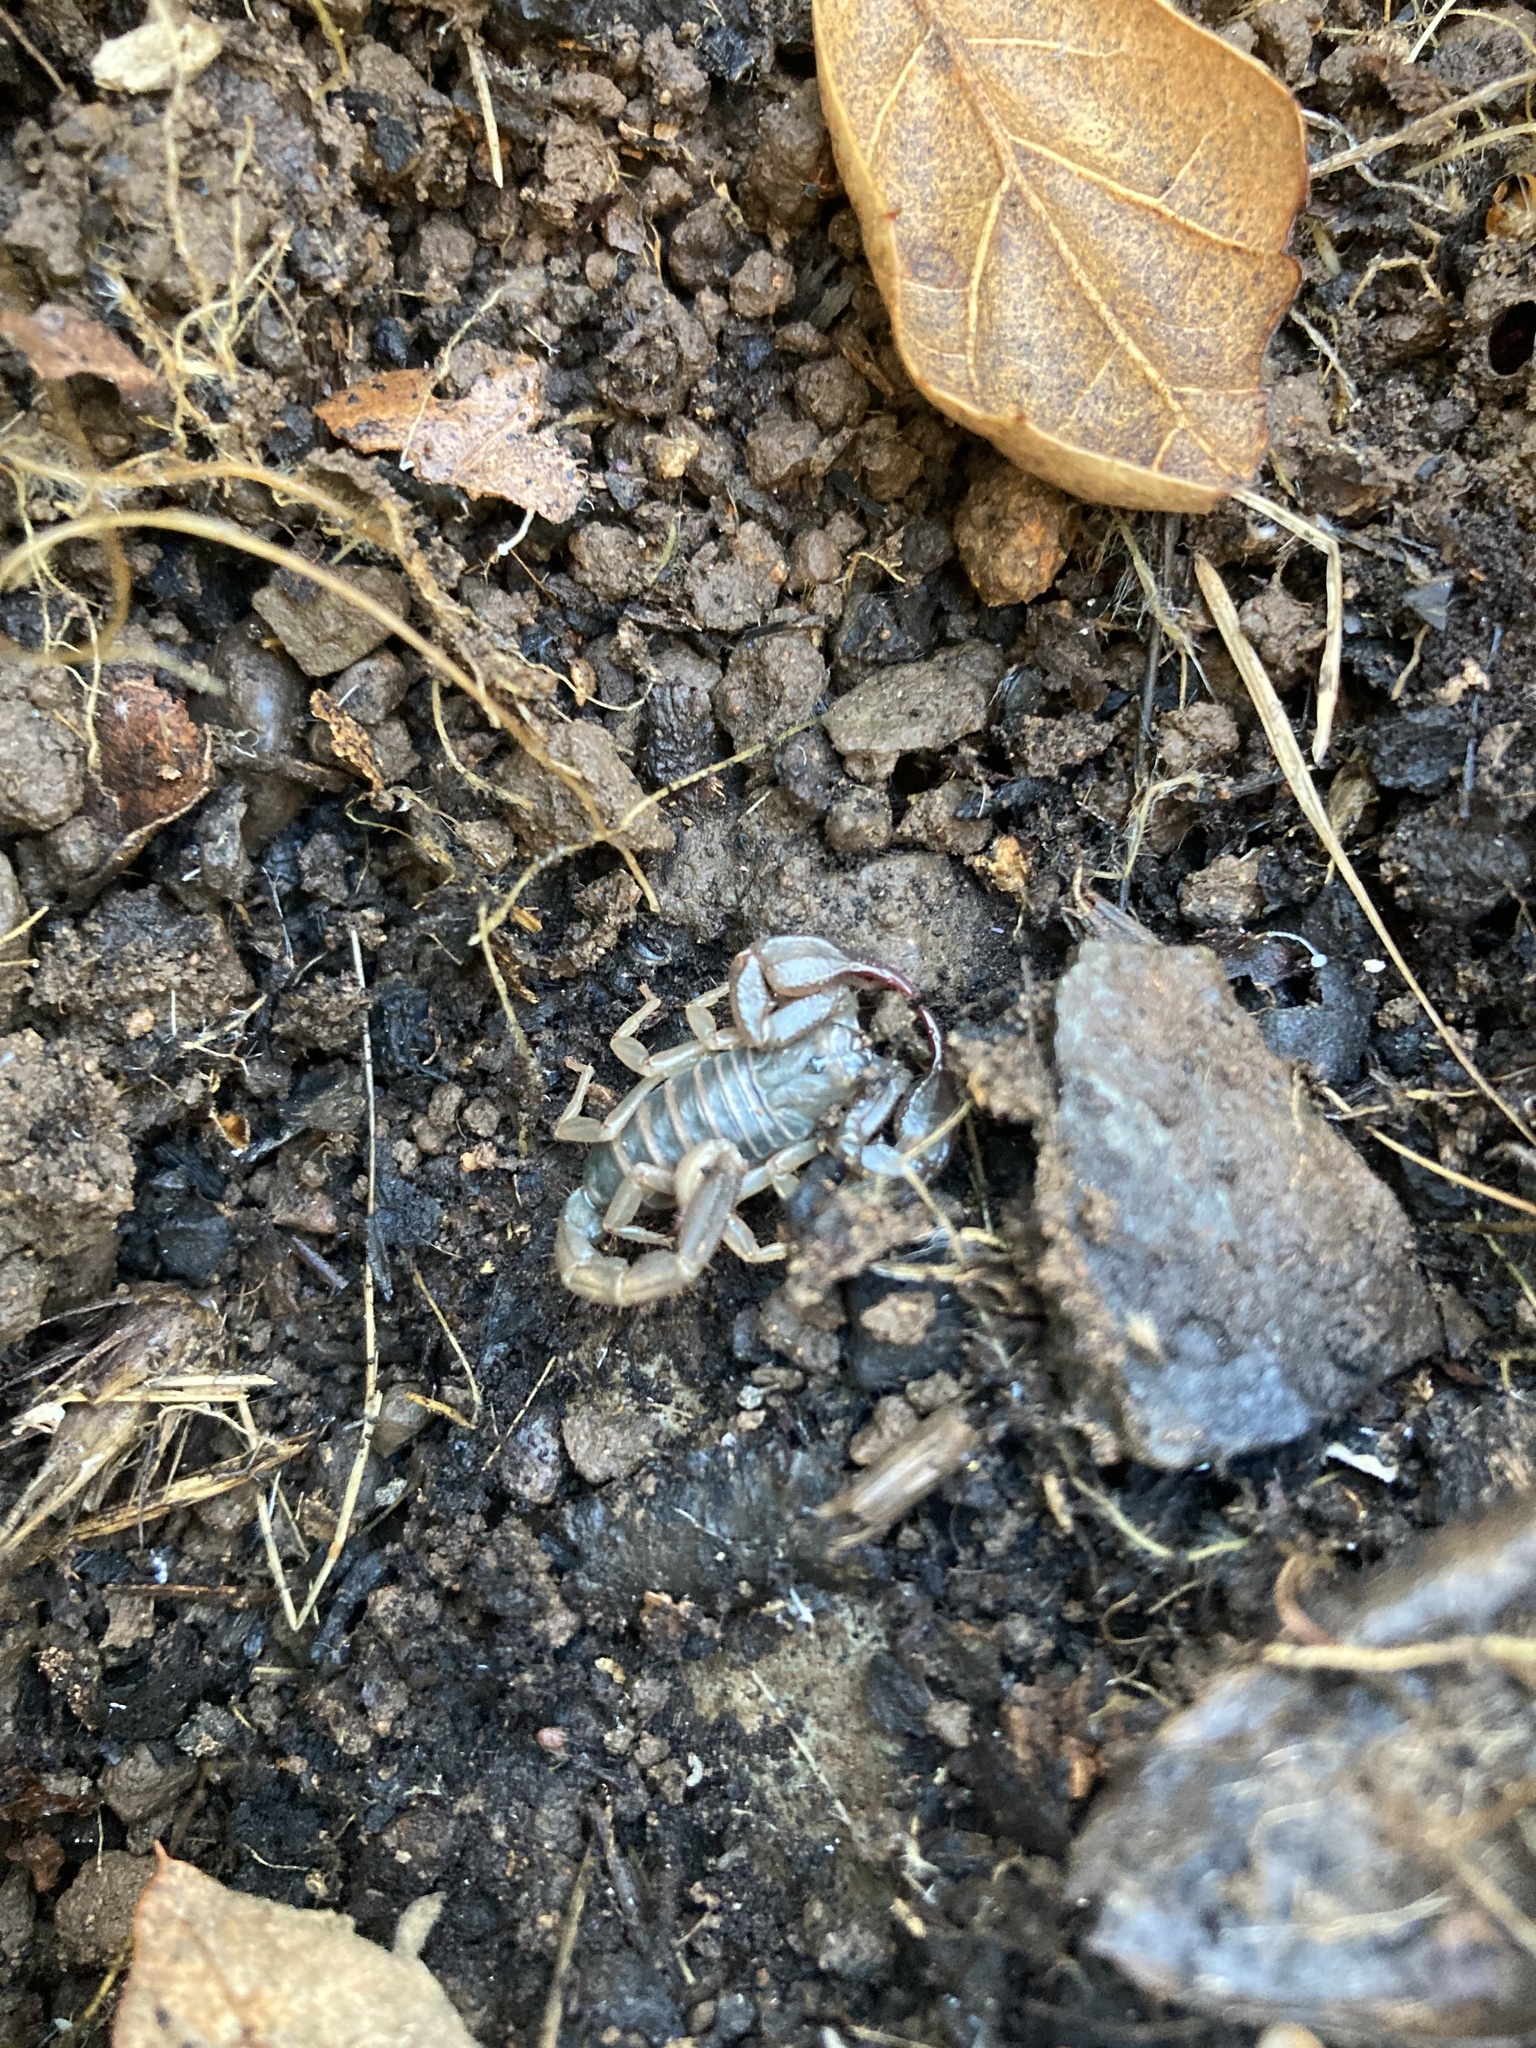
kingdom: Animalia
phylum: Arthropoda
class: Arachnida
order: Scorpiones
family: Chactidae
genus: Uroctonus
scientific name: Uroctonus mordax
